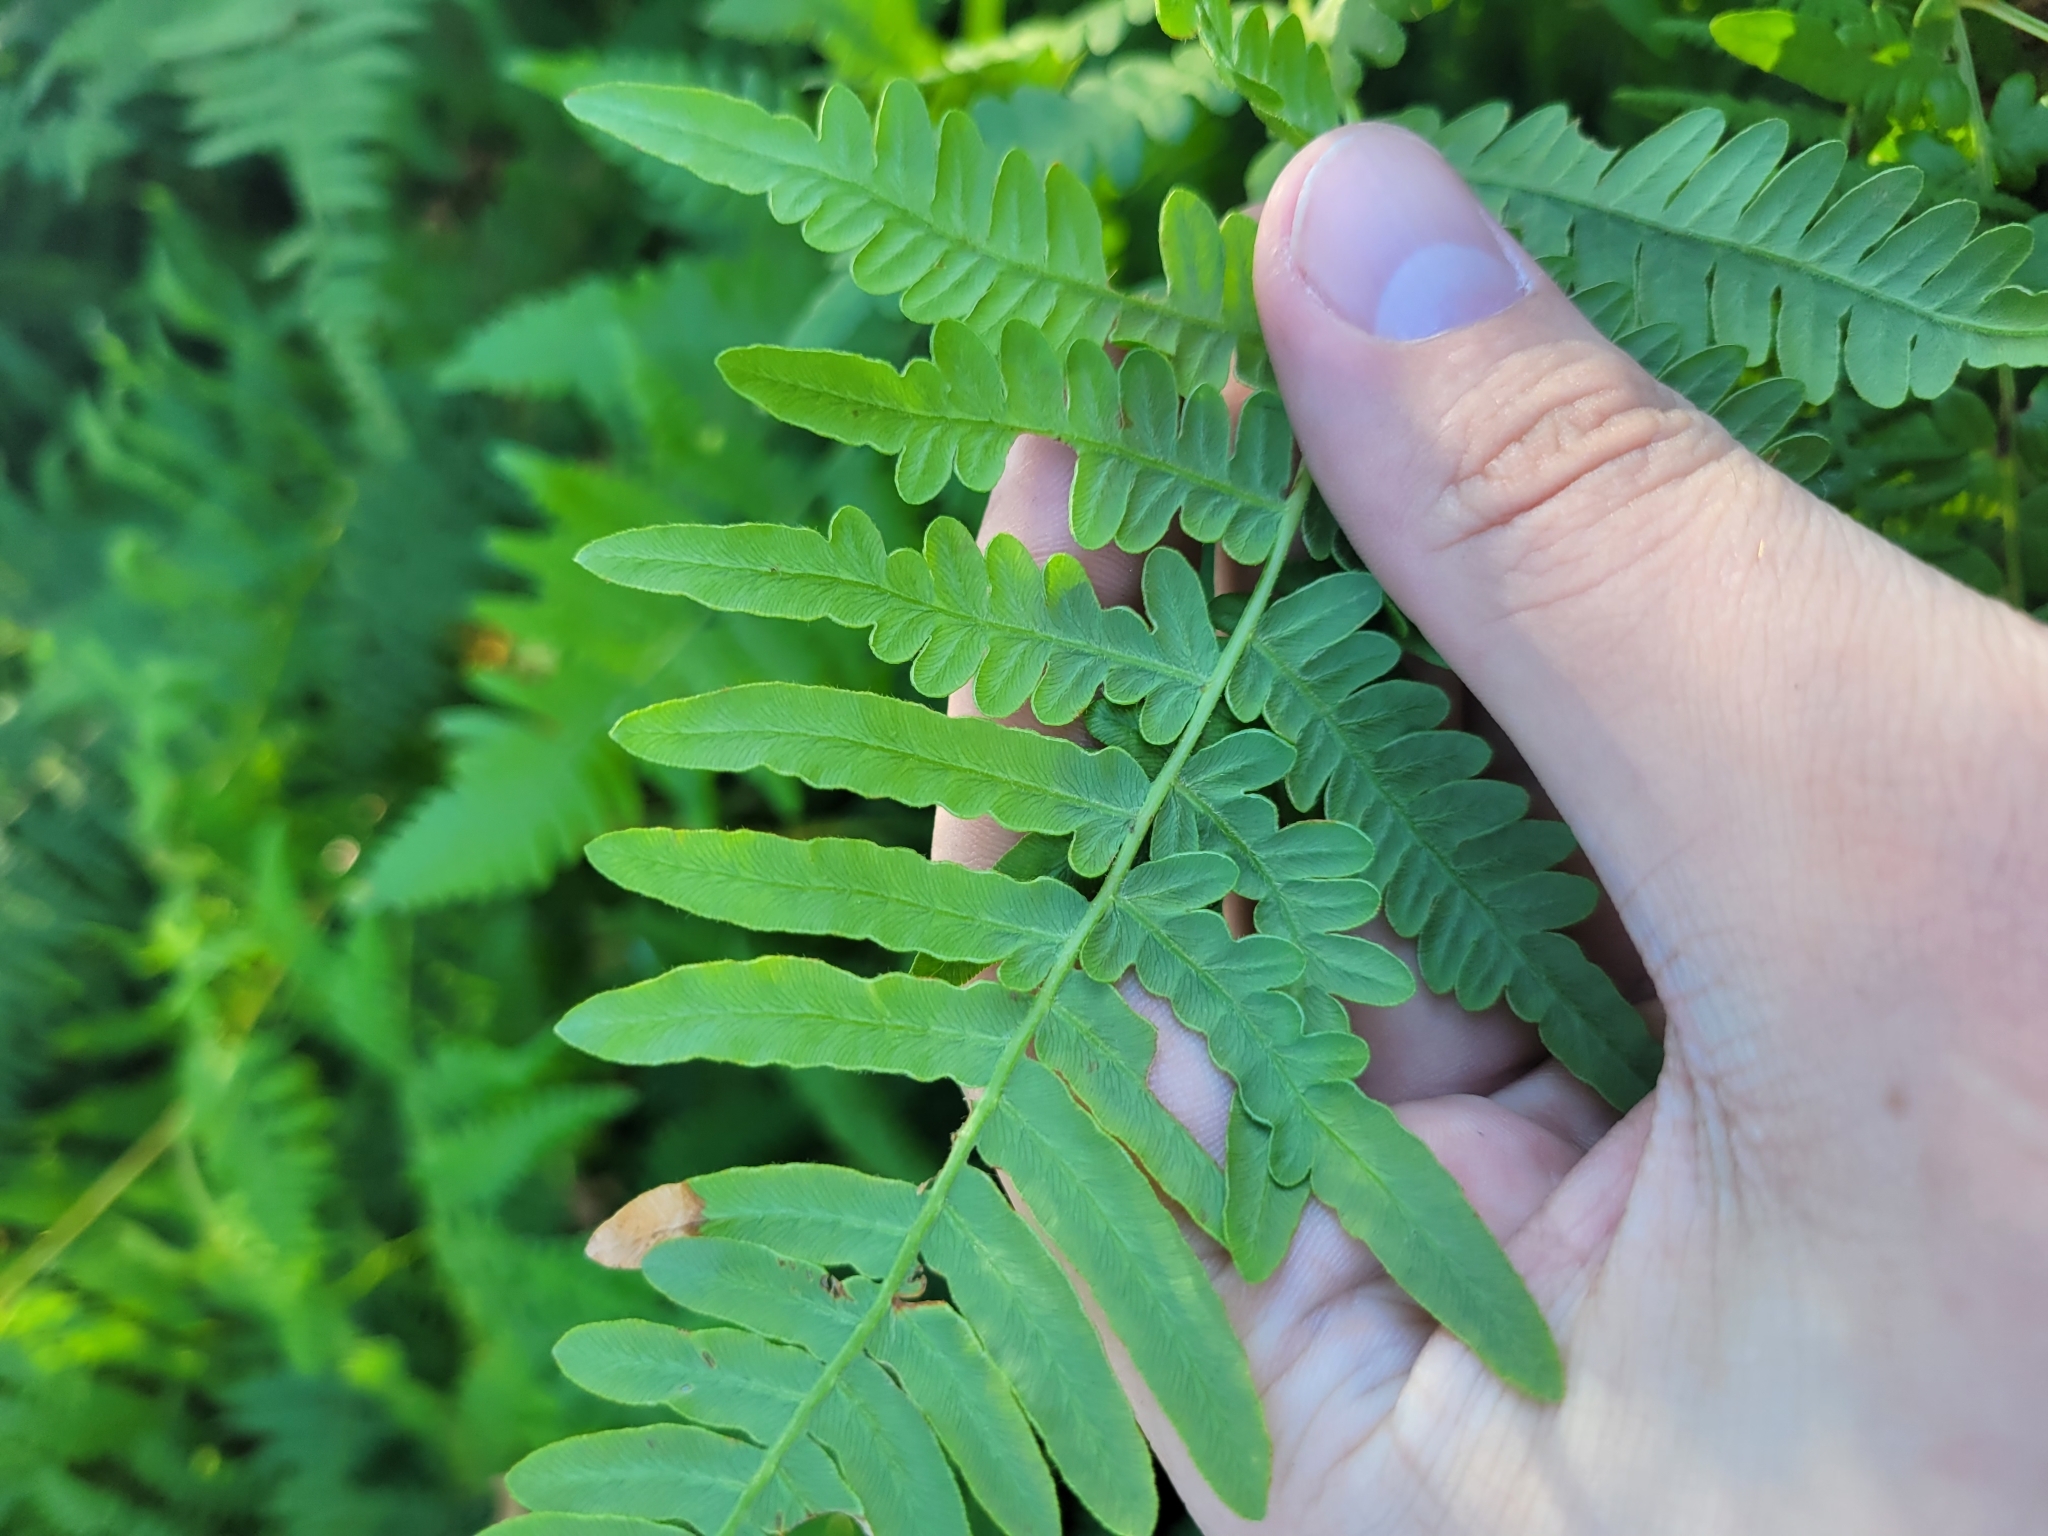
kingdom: Plantae
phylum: Tracheophyta
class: Polypodiopsida
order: Polypodiales
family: Dennstaedtiaceae
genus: Pteridium
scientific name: Pteridium aquilinum
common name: Bracken
